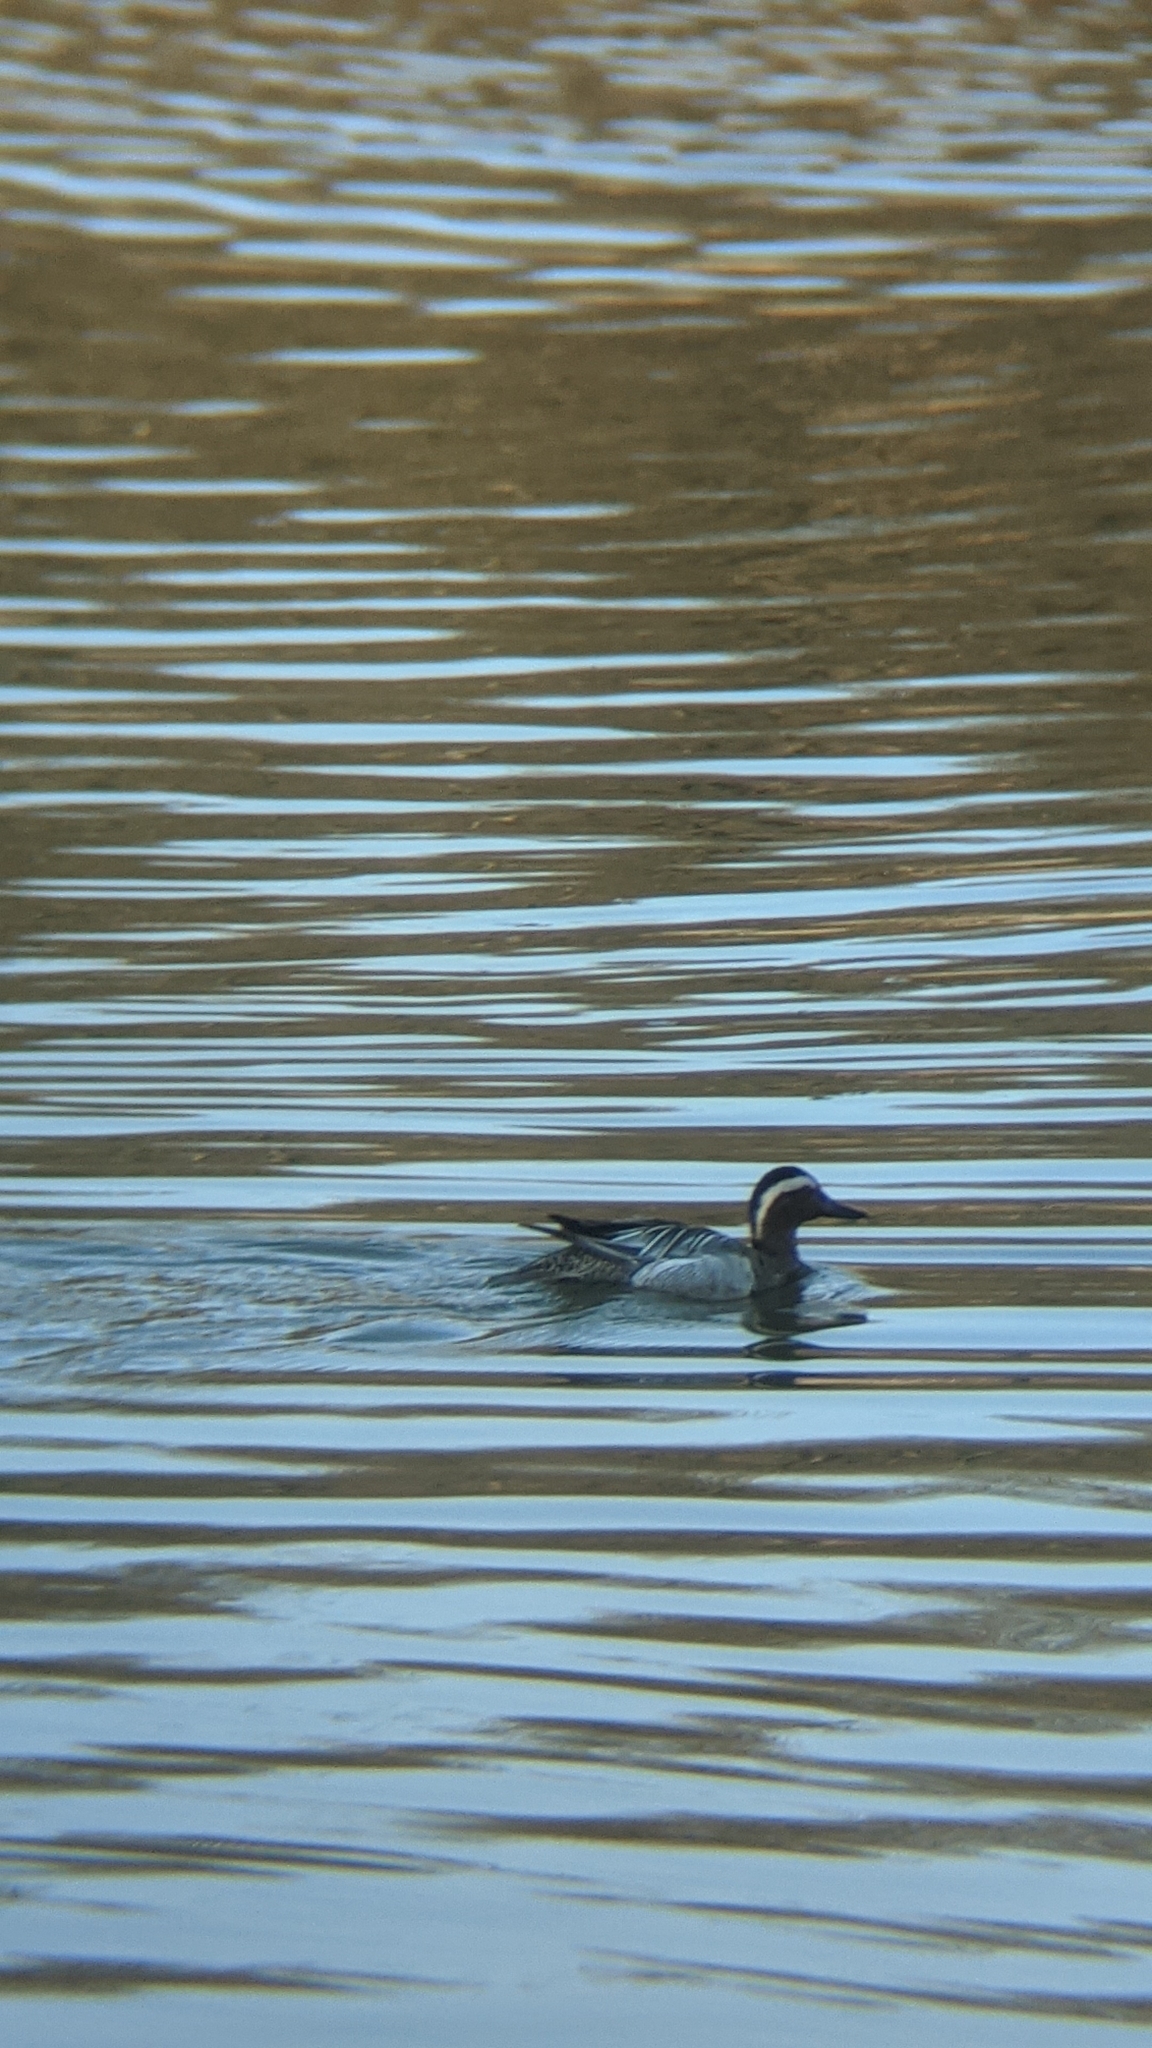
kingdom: Animalia
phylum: Chordata
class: Aves
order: Anseriformes
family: Anatidae
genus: Spatula
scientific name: Spatula querquedula
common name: Garganey
